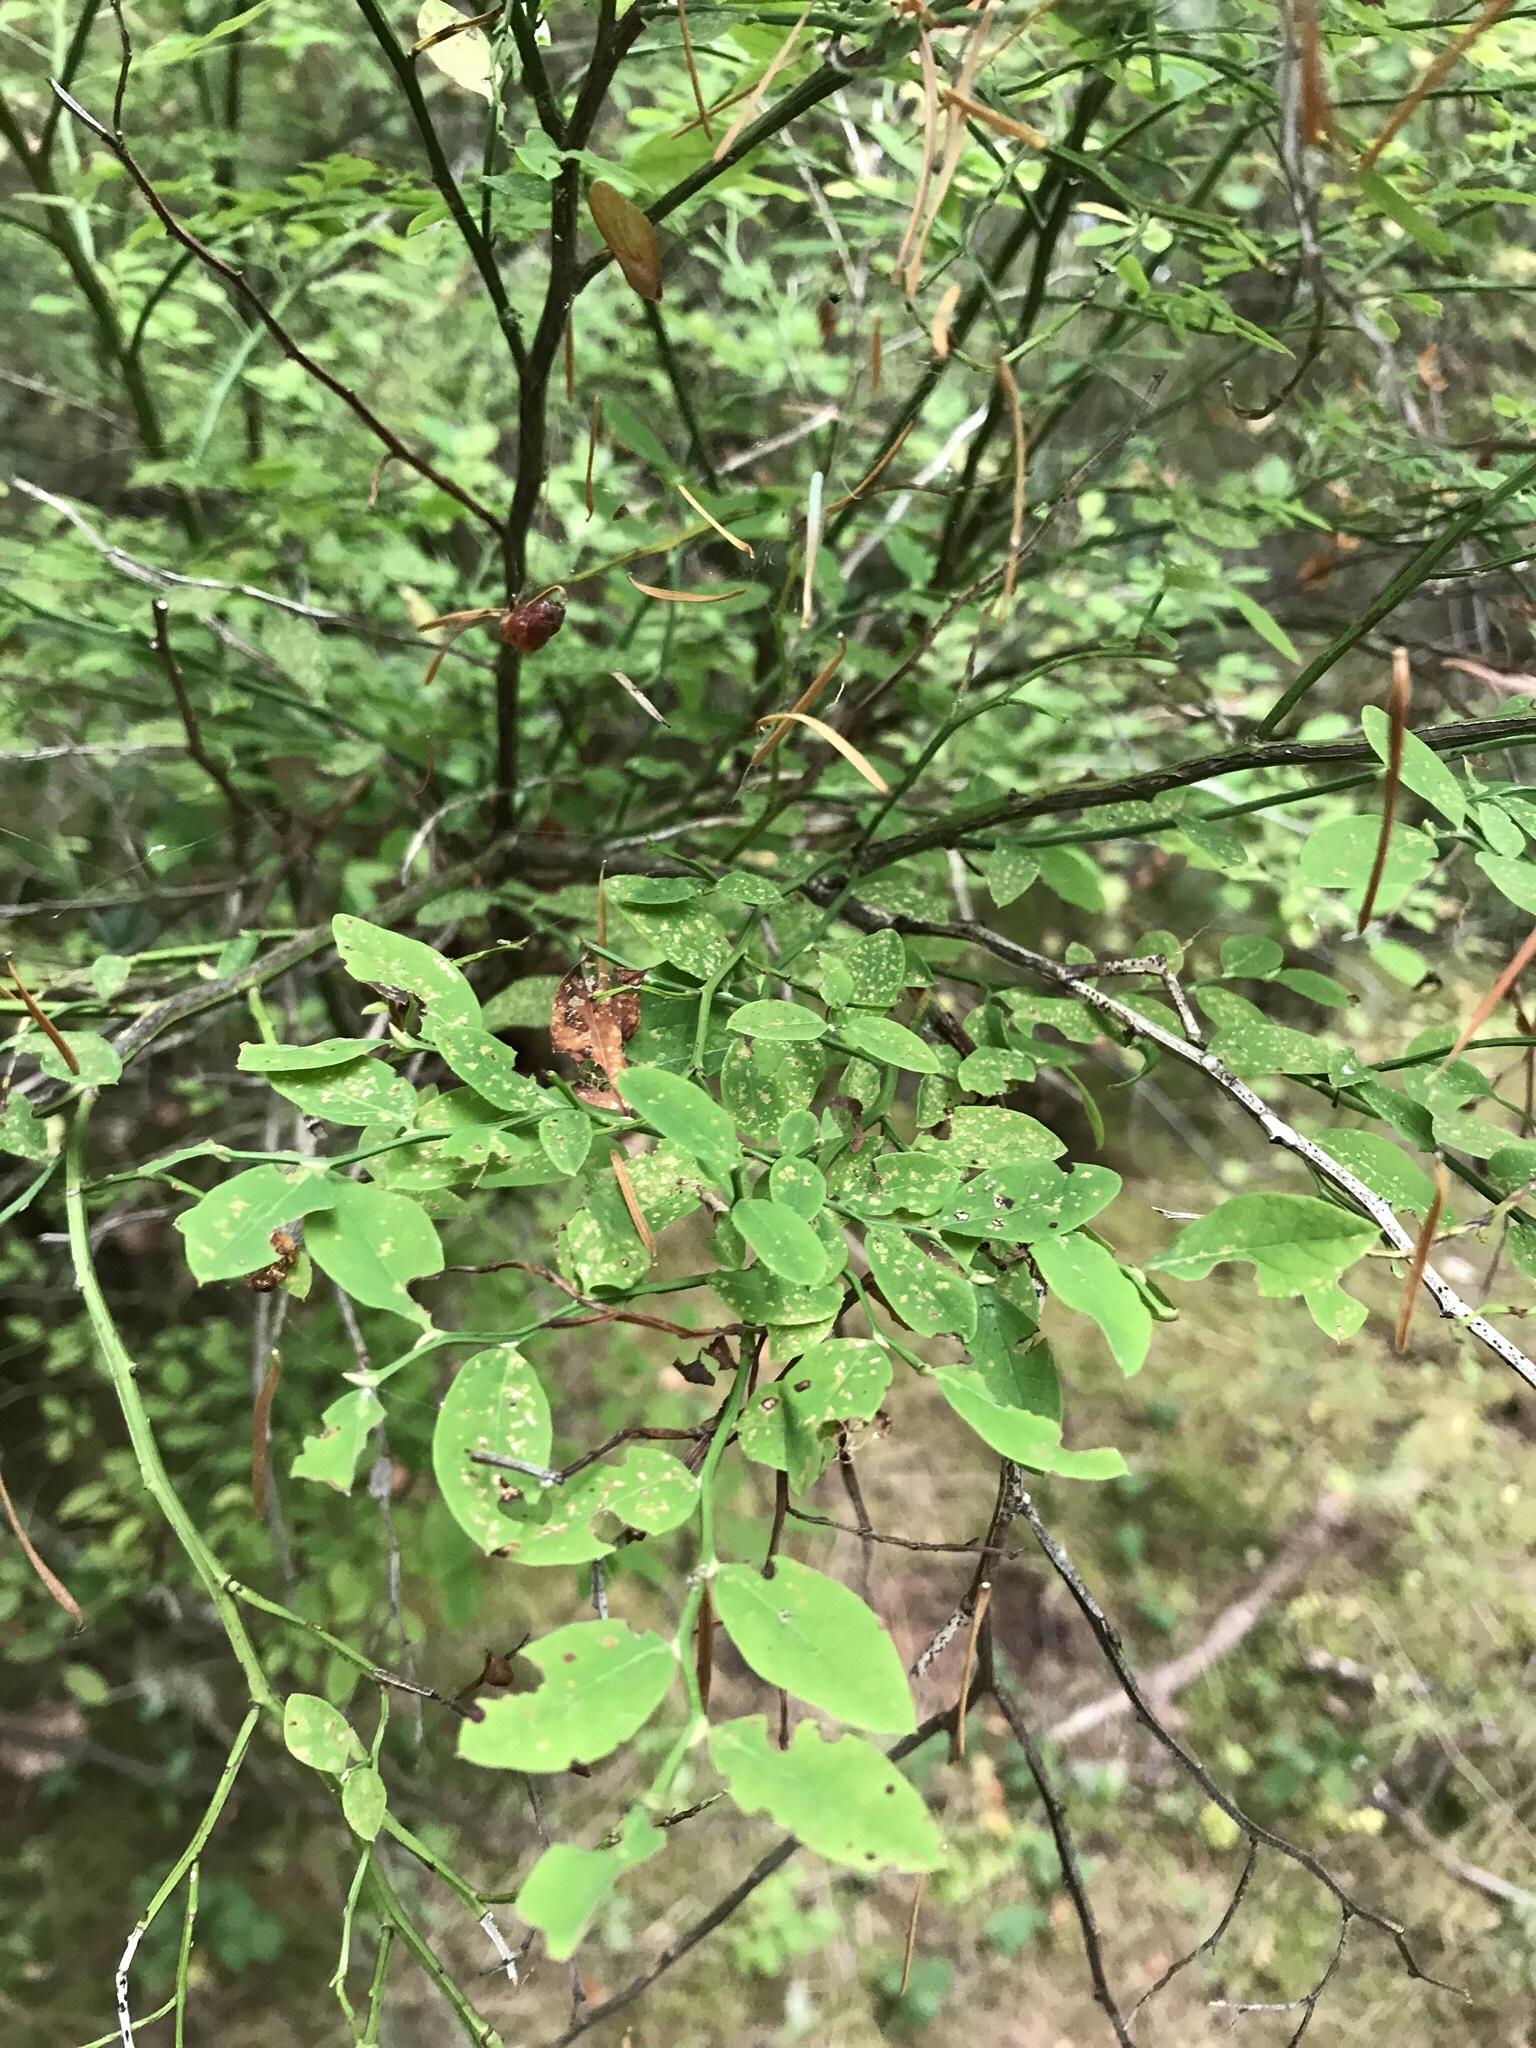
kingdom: Plantae
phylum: Tracheophyta
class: Magnoliopsida
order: Ericales
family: Ericaceae
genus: Vaccinium
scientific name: Vaccinium parvifolium
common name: Red-huckleberry
